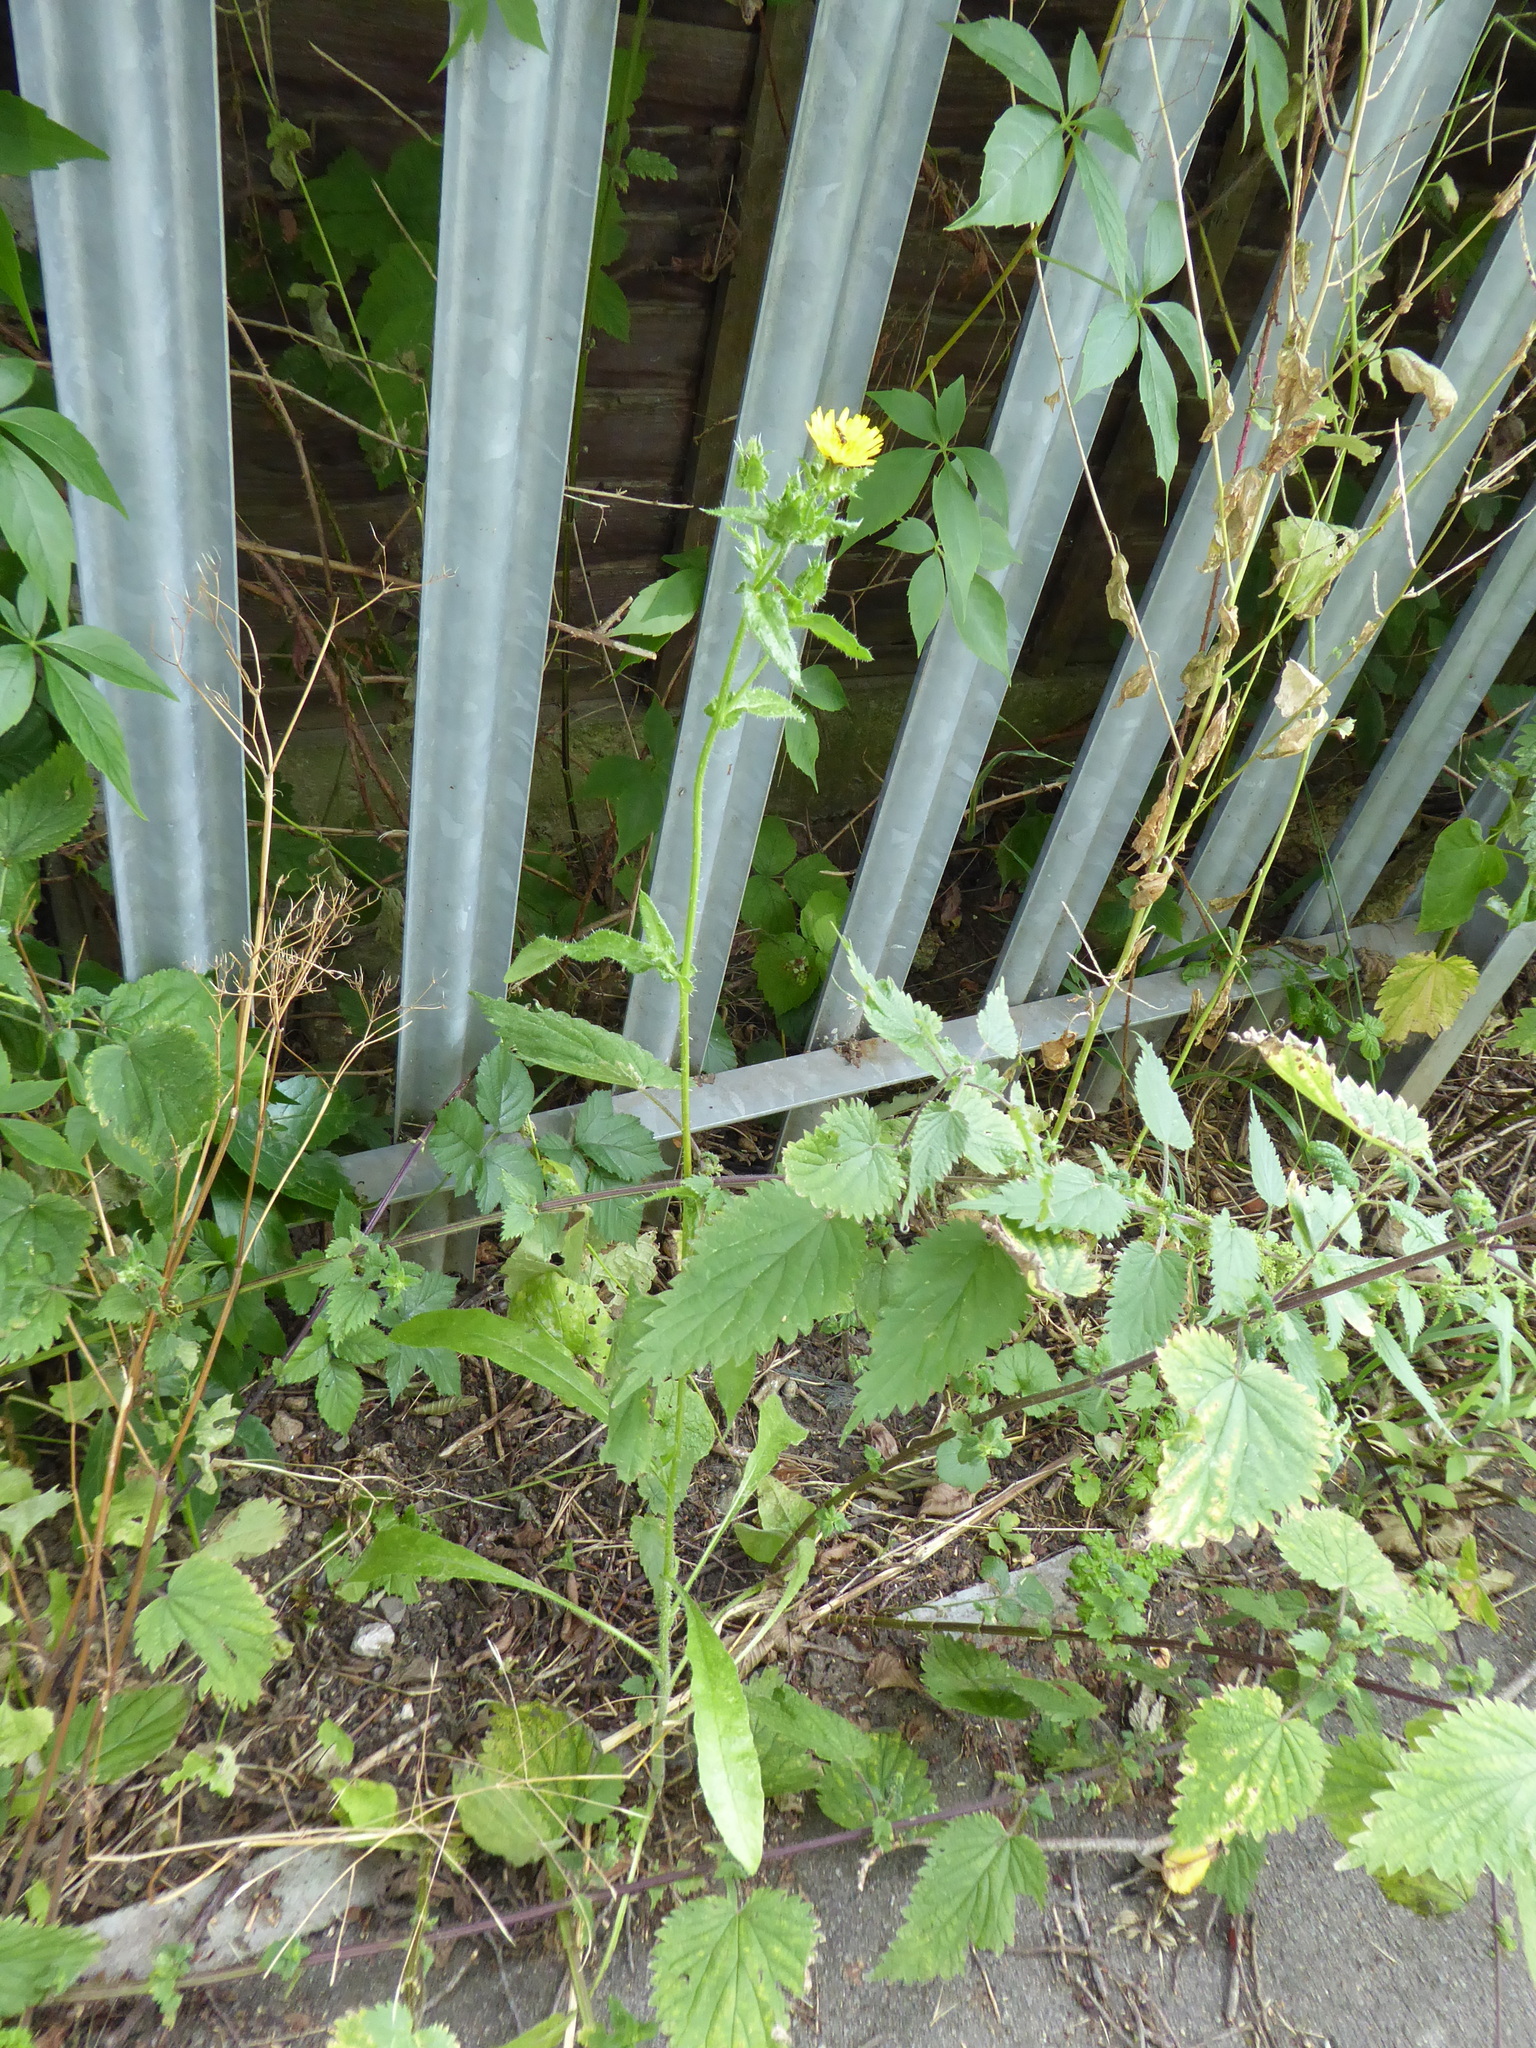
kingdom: Plantae
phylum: Tracheophyta
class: Magnoliopsida
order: Asterales
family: Asteraceae
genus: Helminthotheca
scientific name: Helminthotheca echioides
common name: Ox-tongue
